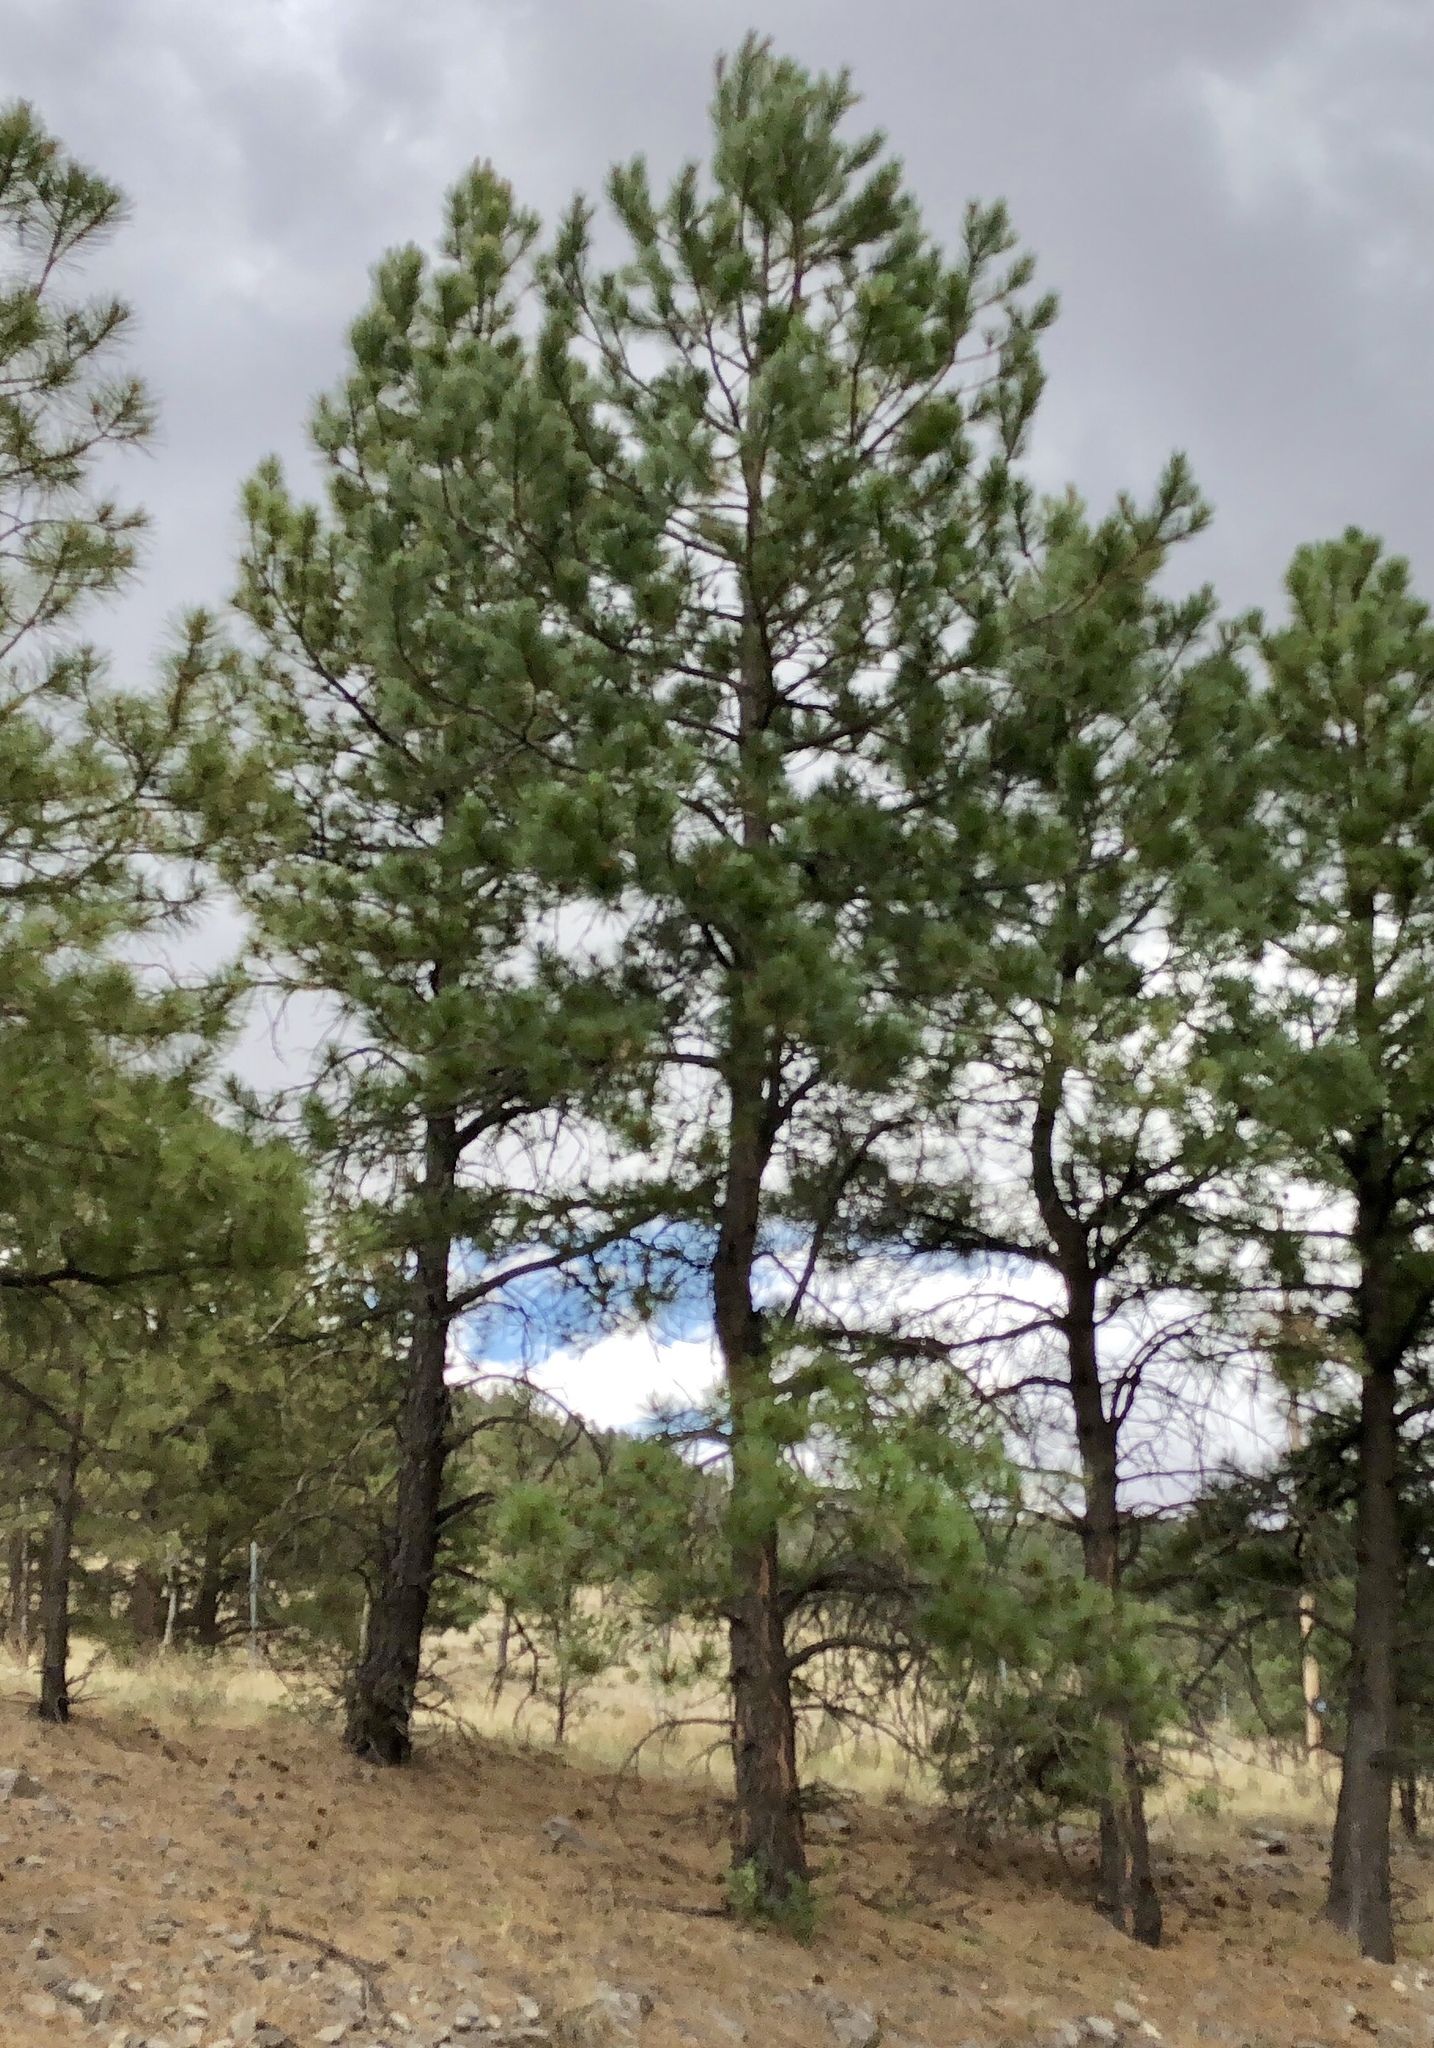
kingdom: Plantae
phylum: Tracheophyta
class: Pinopsida
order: Pinales
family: Pinaceae
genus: Pinus
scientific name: Pinus ponderosa
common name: Western yellow-pine
